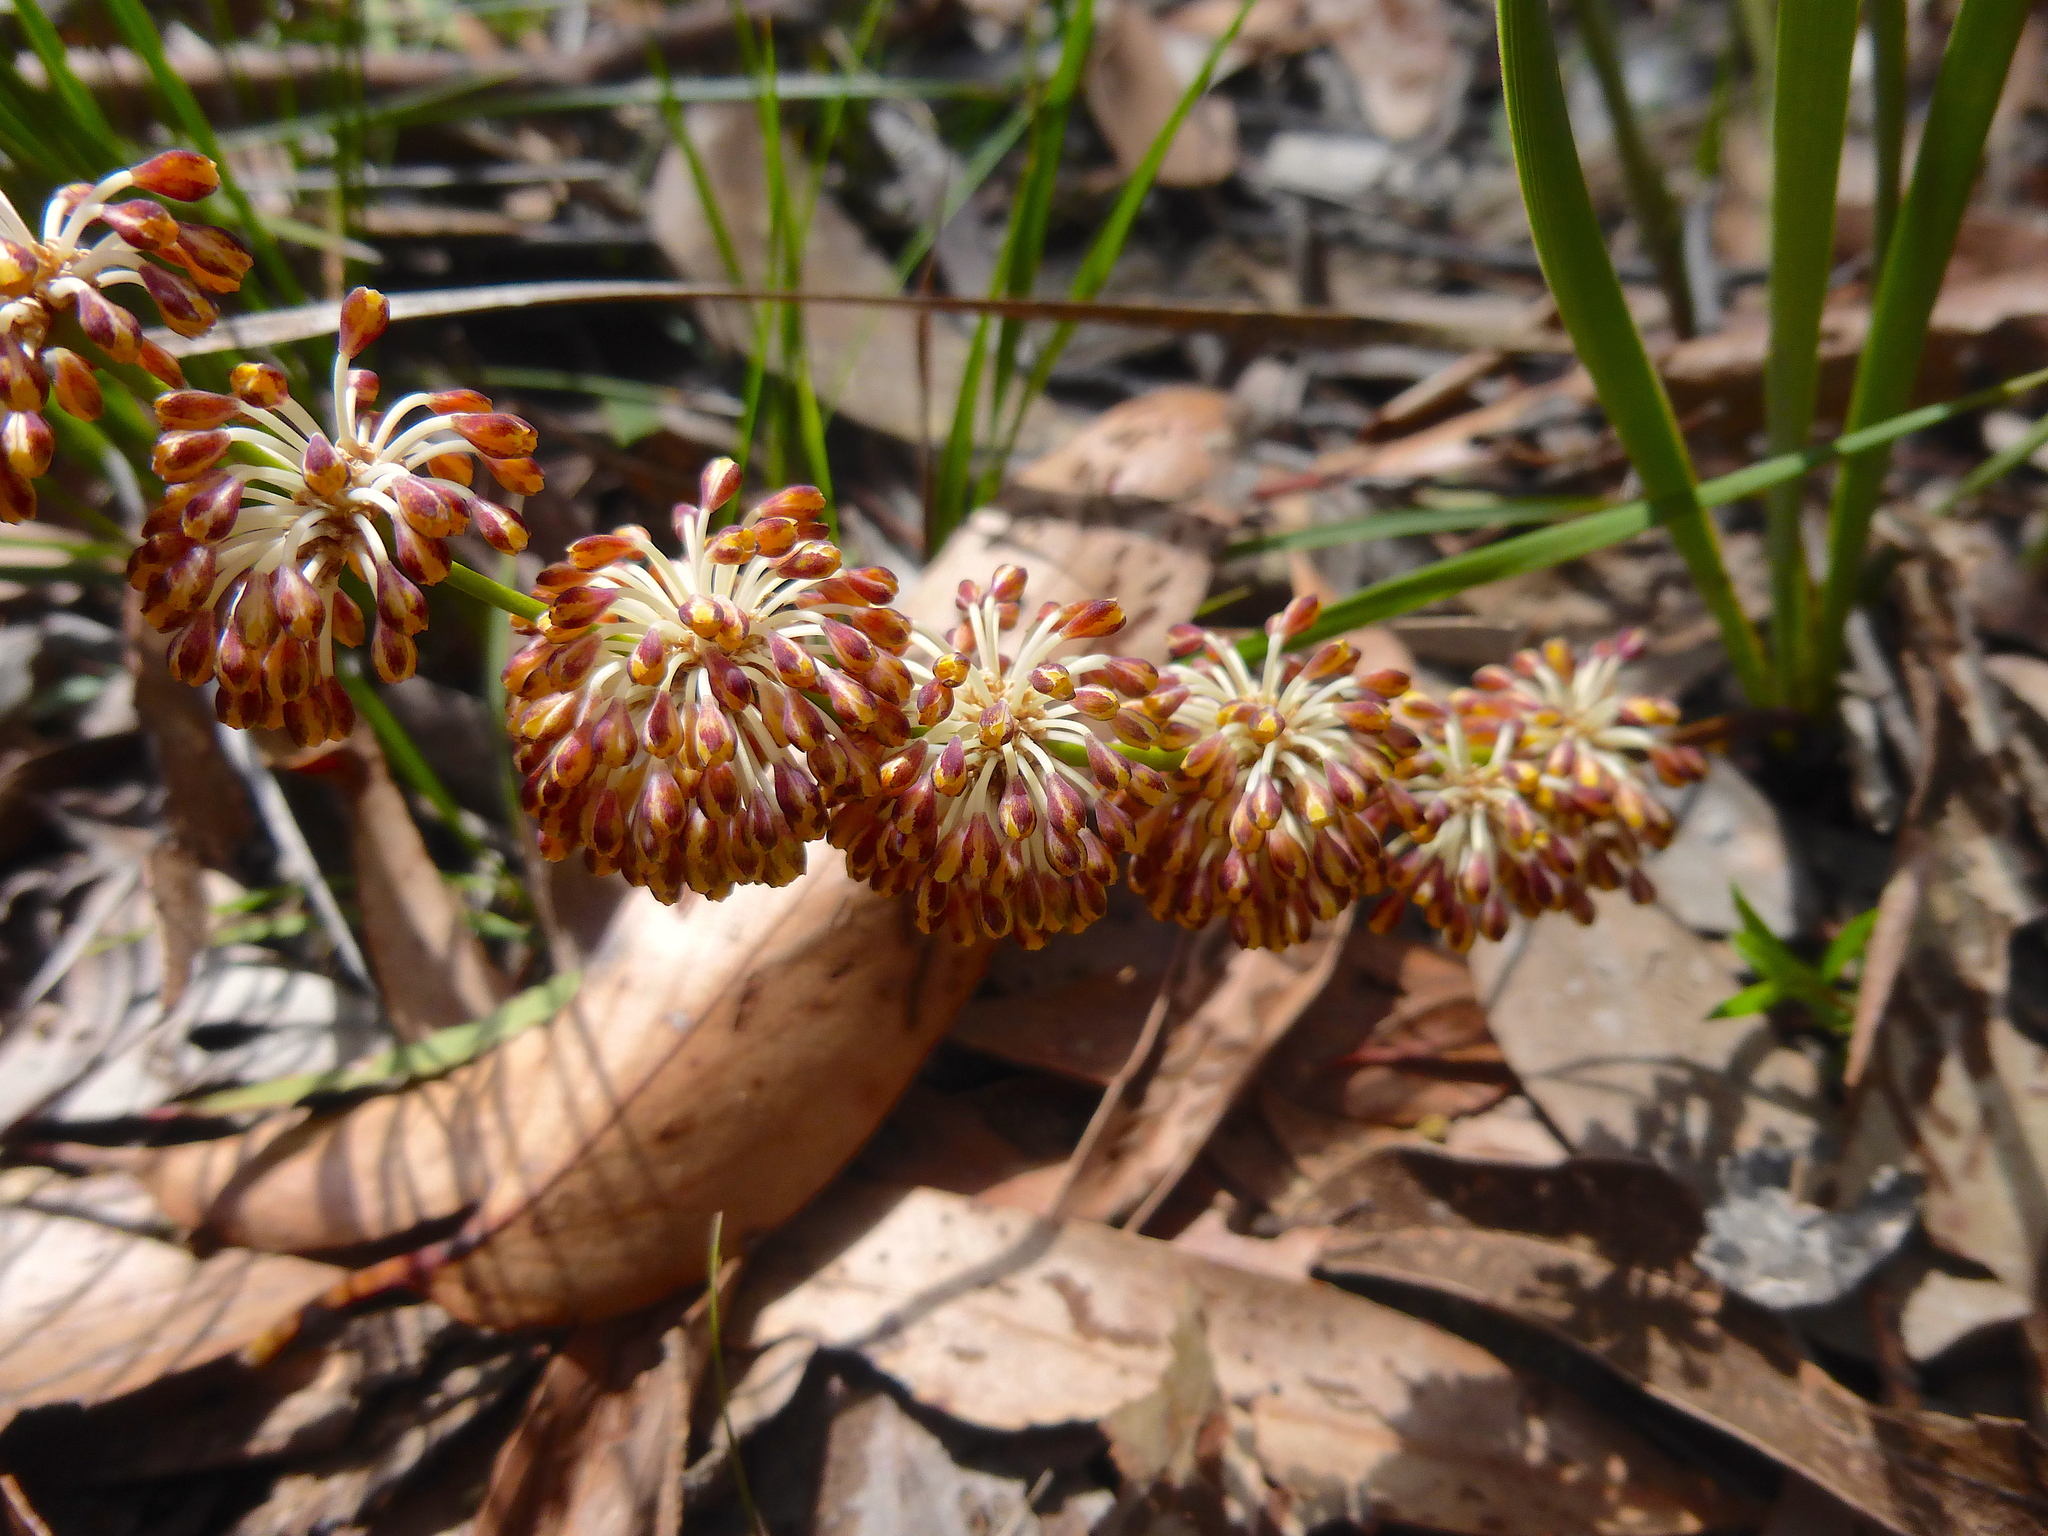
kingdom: Plantae
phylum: Tracheophyta
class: Liliopsida
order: Asparagales
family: Asparagaceae
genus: Lomandra
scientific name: Lomandra multiflora
